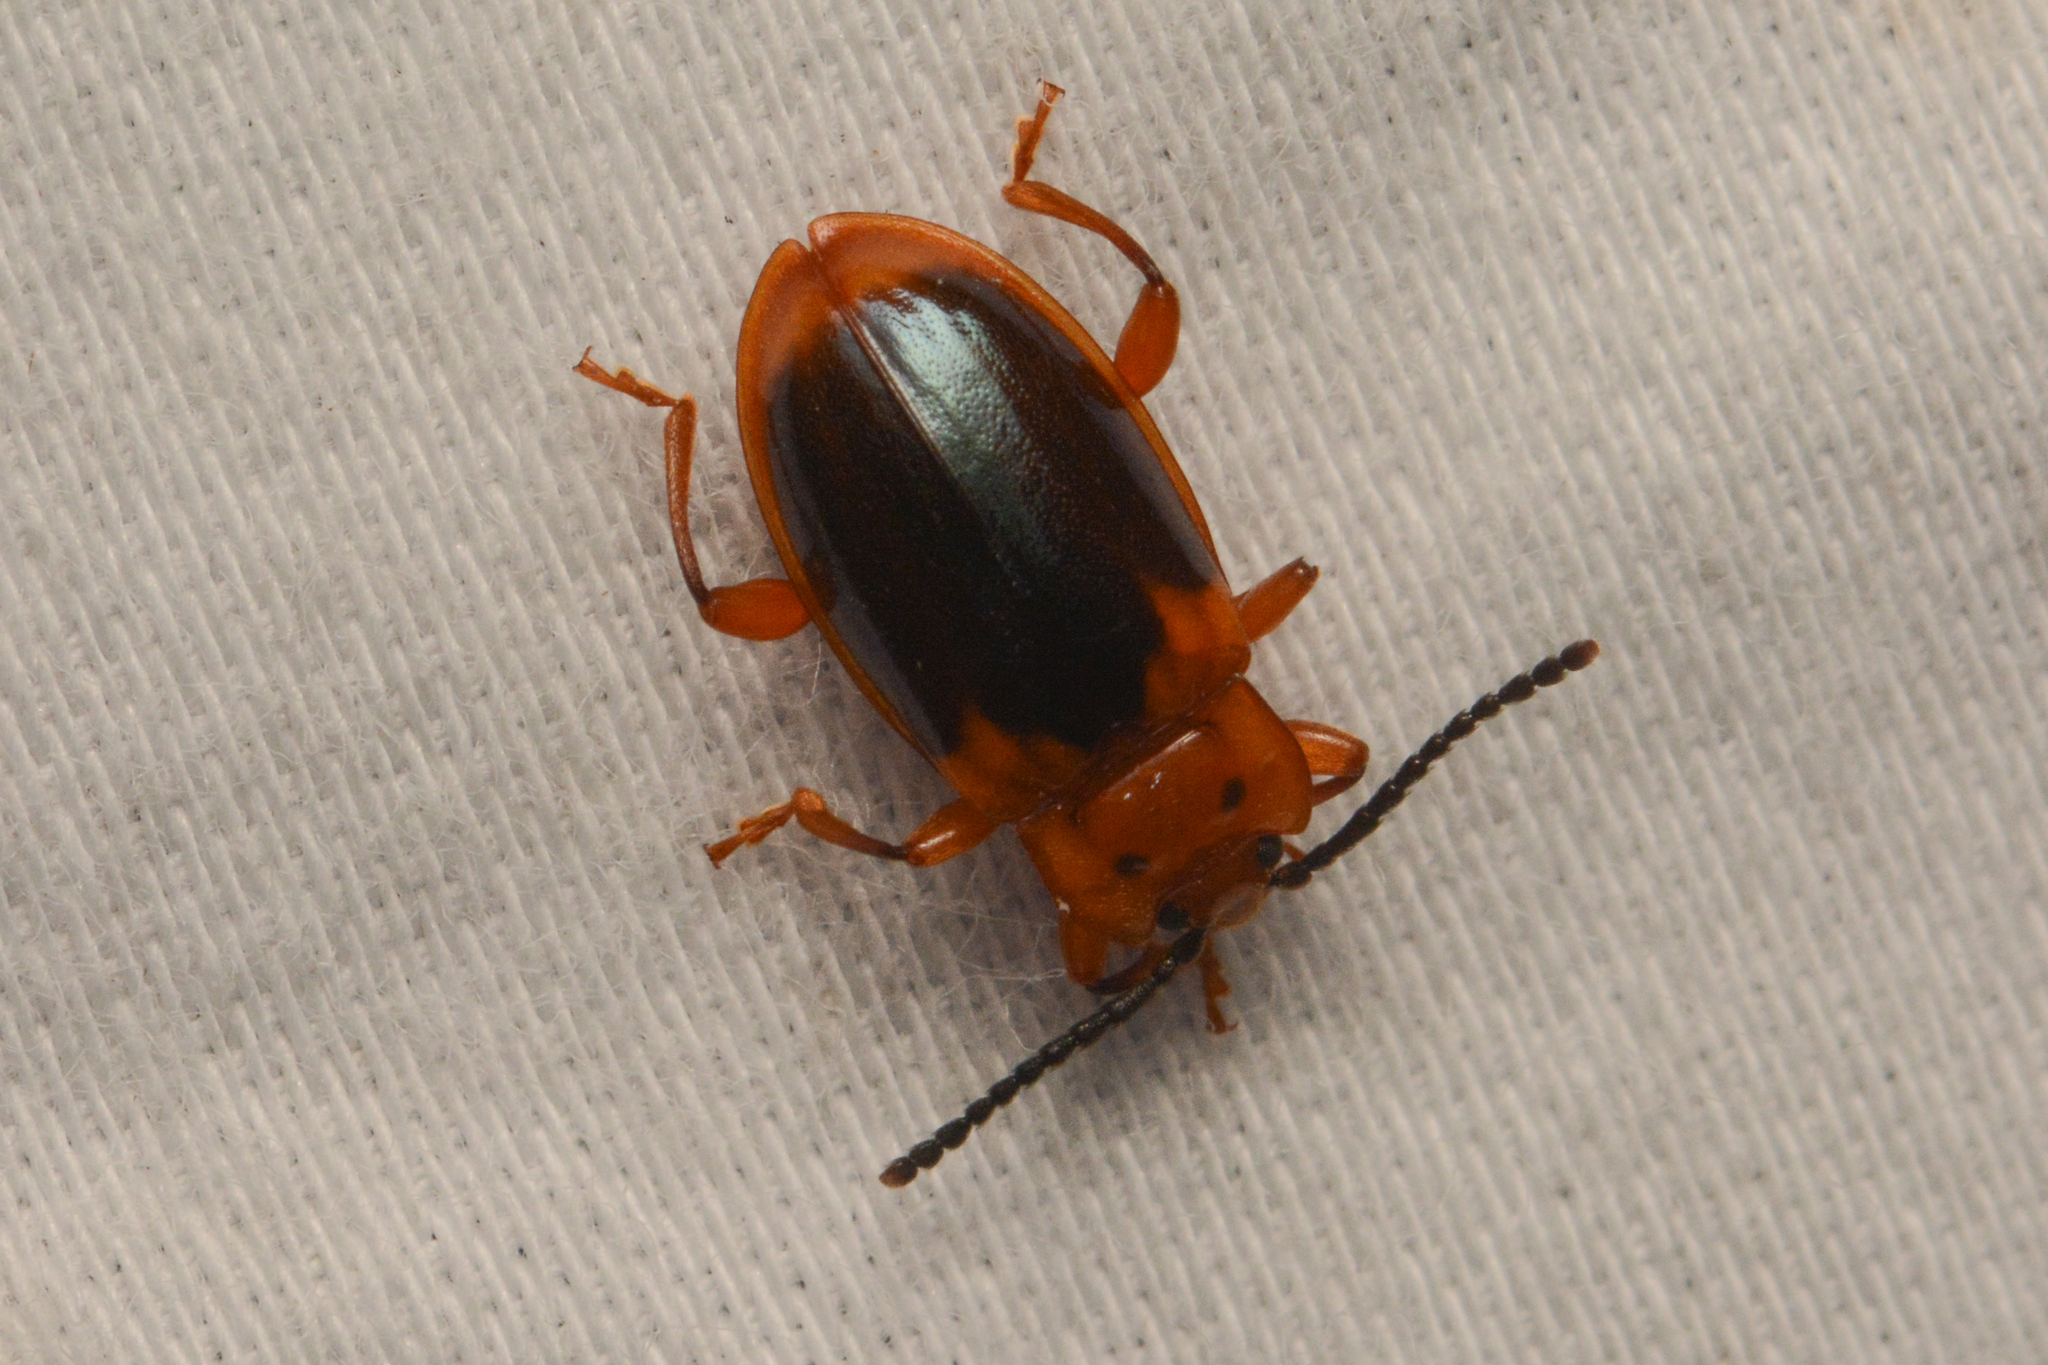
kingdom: Animalia
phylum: Arthropoda
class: Insecta
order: Coleoptera
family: Endomychidae
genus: Aphorista
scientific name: Aphorista laeta
